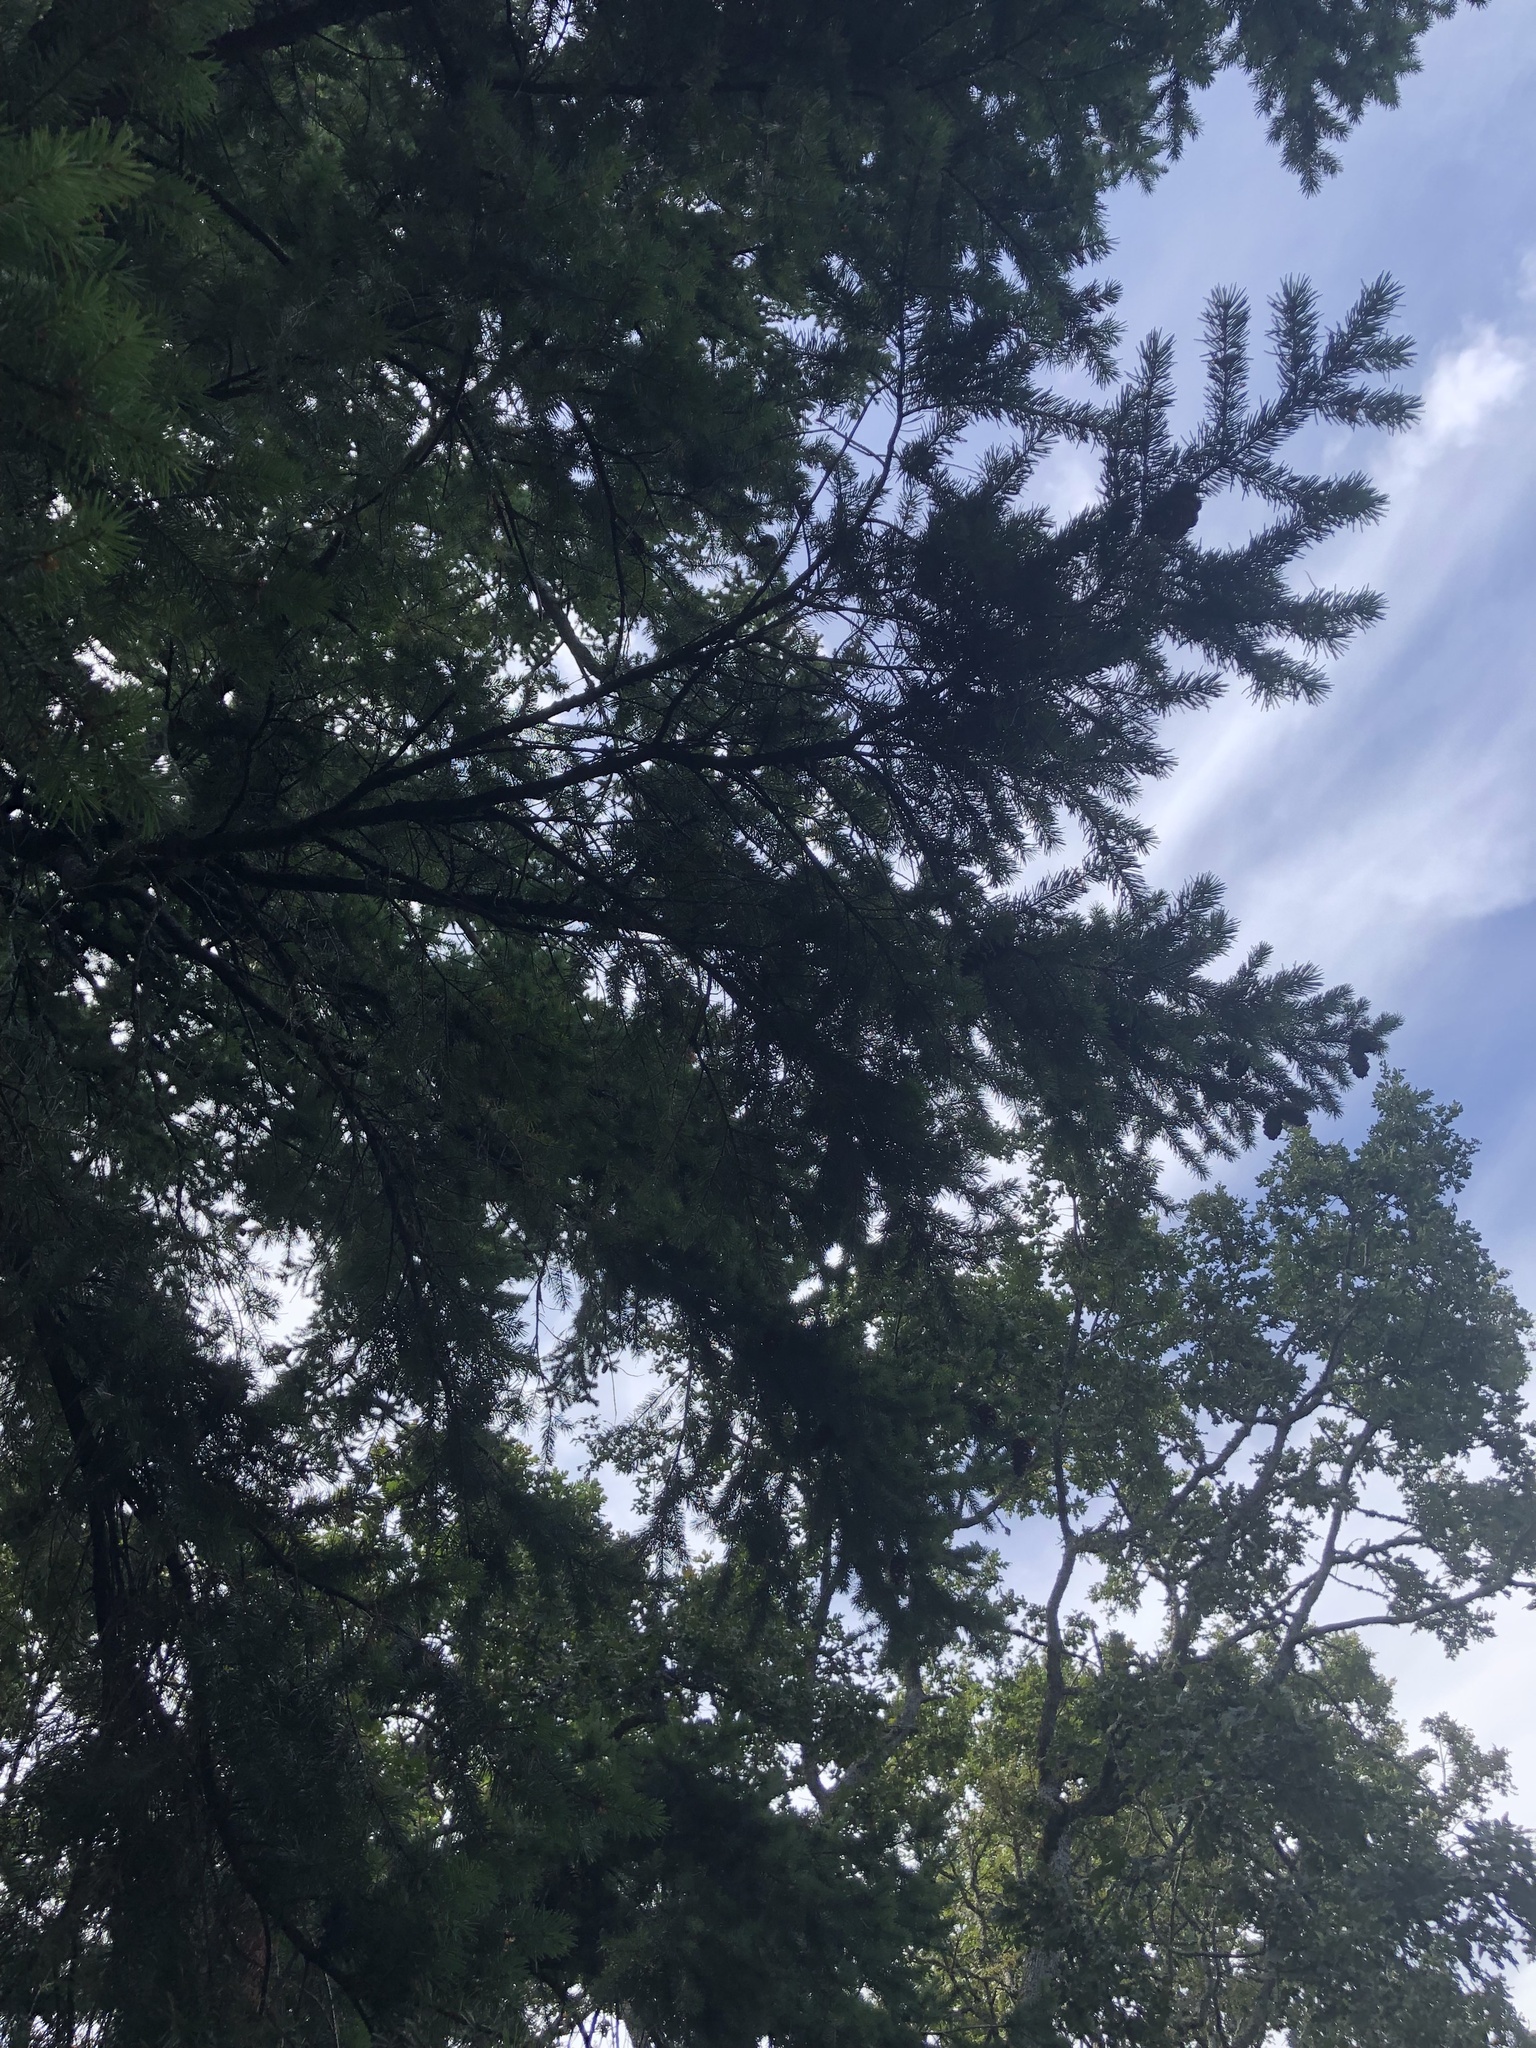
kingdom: Plantae
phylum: Tracheophyta
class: Pinopsida
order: Pinales
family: Pinaceae
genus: Pseudotsuga
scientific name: Pseudotsuga menziesii
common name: Douglas fir
